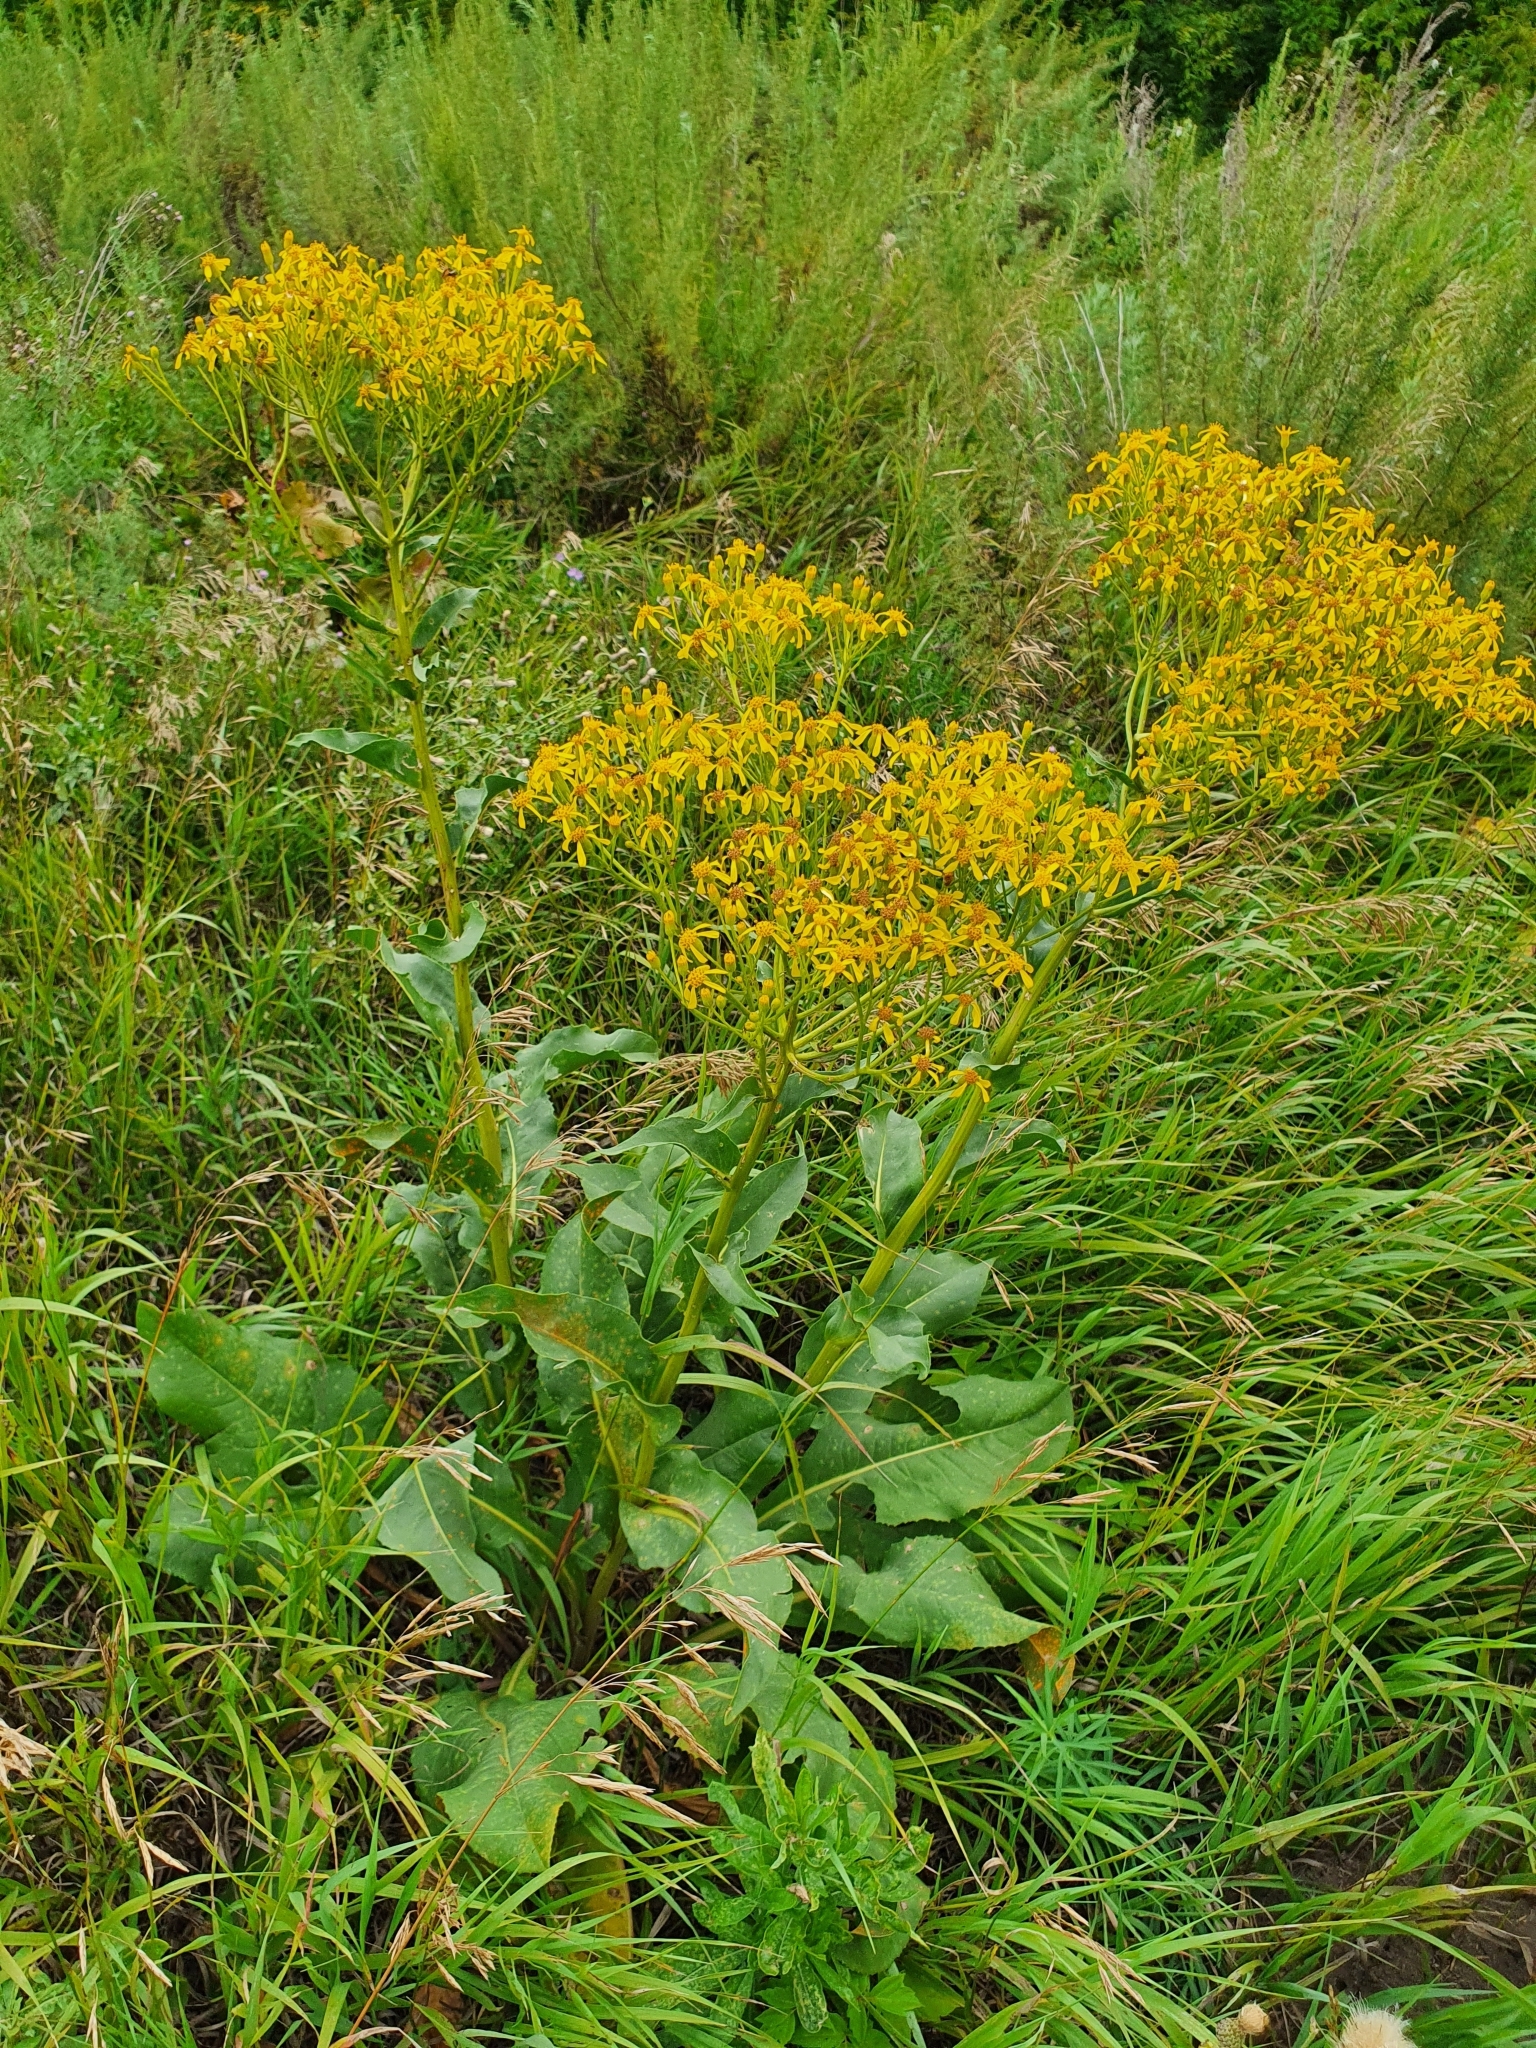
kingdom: Plantae
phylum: Tracheophyta
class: Magnoliopsida
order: Asterales
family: Asteraceae
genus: Senecio
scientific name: Senecio doria
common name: Golden ragwort
